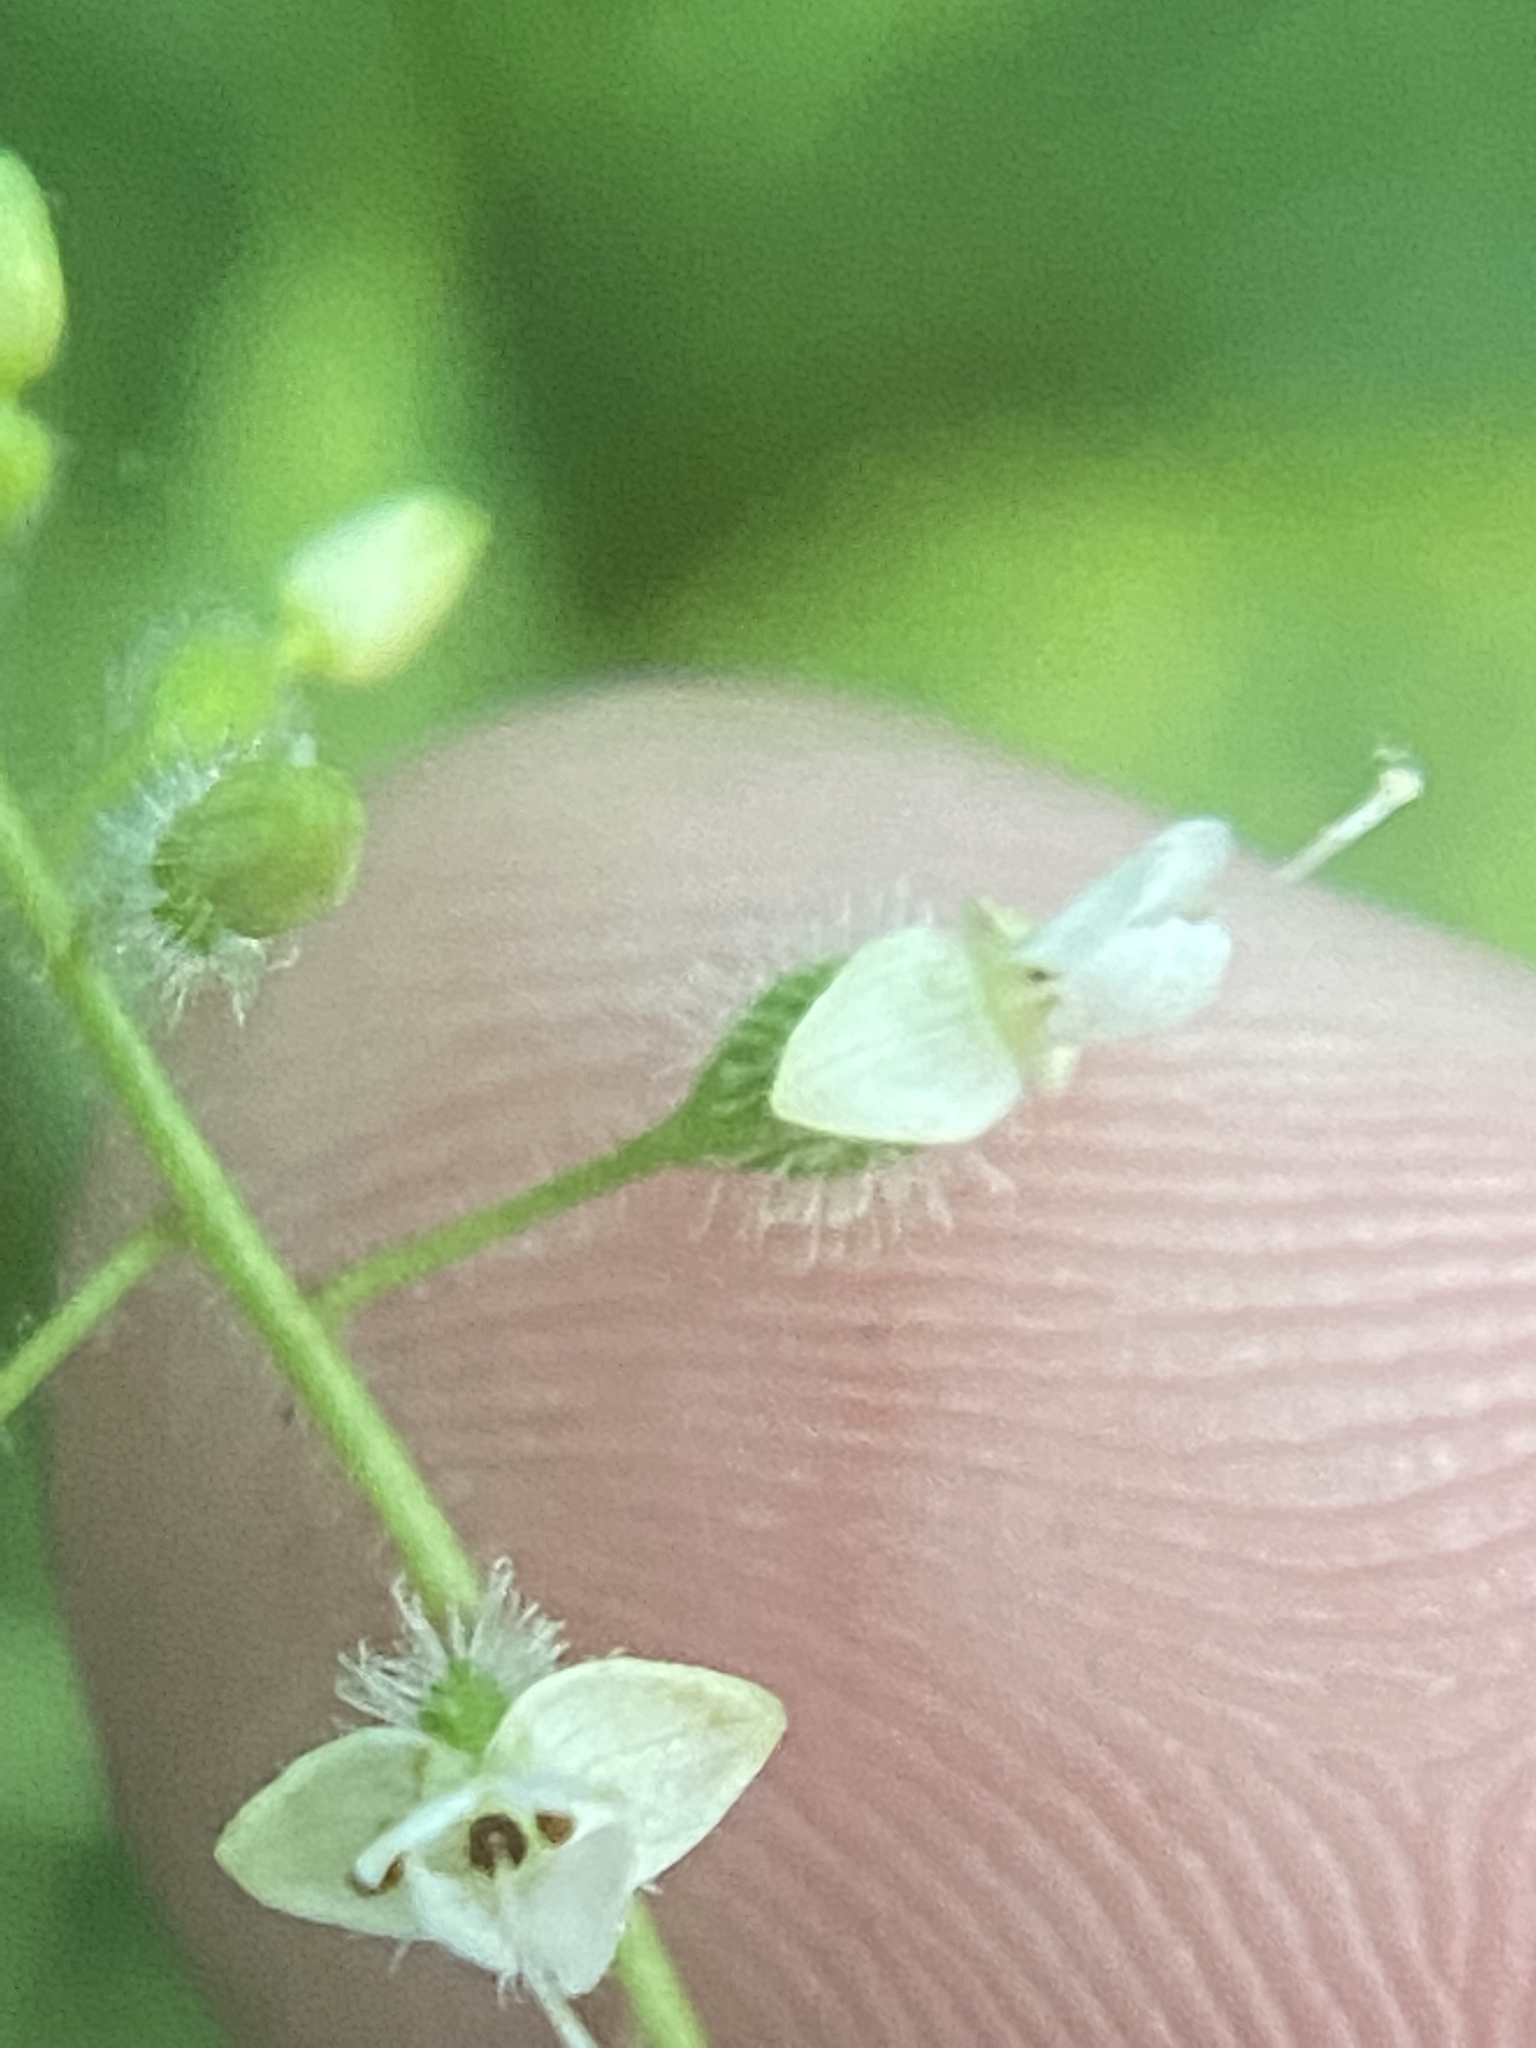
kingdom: Plantae
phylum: Tracheophyta
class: Magnoliopsida
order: Myrtales
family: Onagraceae
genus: Circaea
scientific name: Circaea canadensis
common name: Broad-leaved enchanter's nightshade
